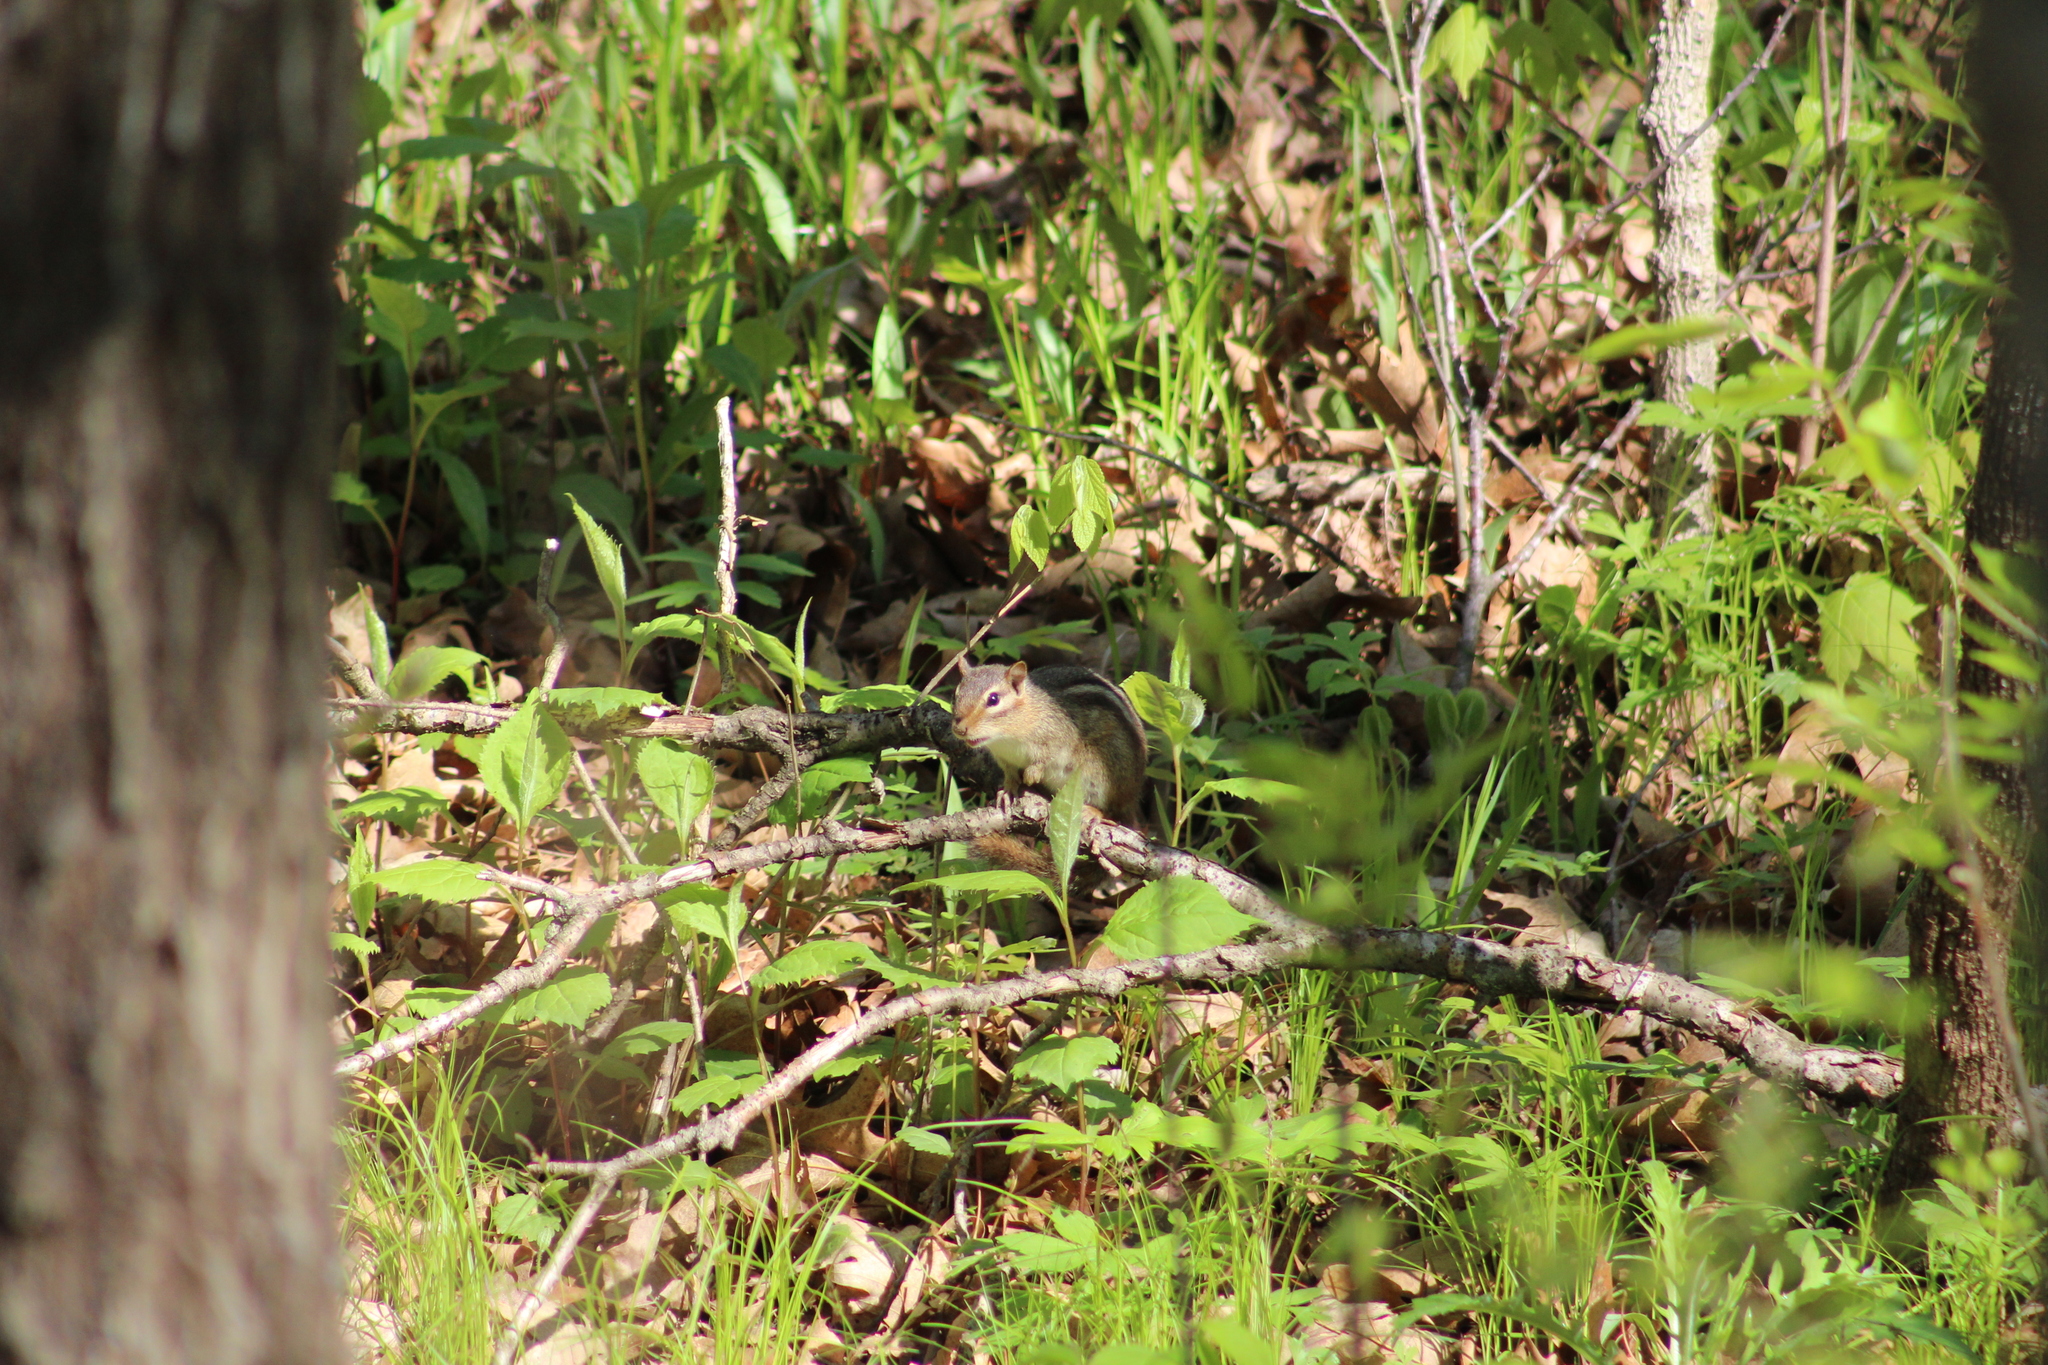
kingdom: Animalia
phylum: Chordata
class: Mammalia
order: Rodentia
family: Sciuridae
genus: Tamias
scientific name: Tamias striatus
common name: Eastern chipmunk
